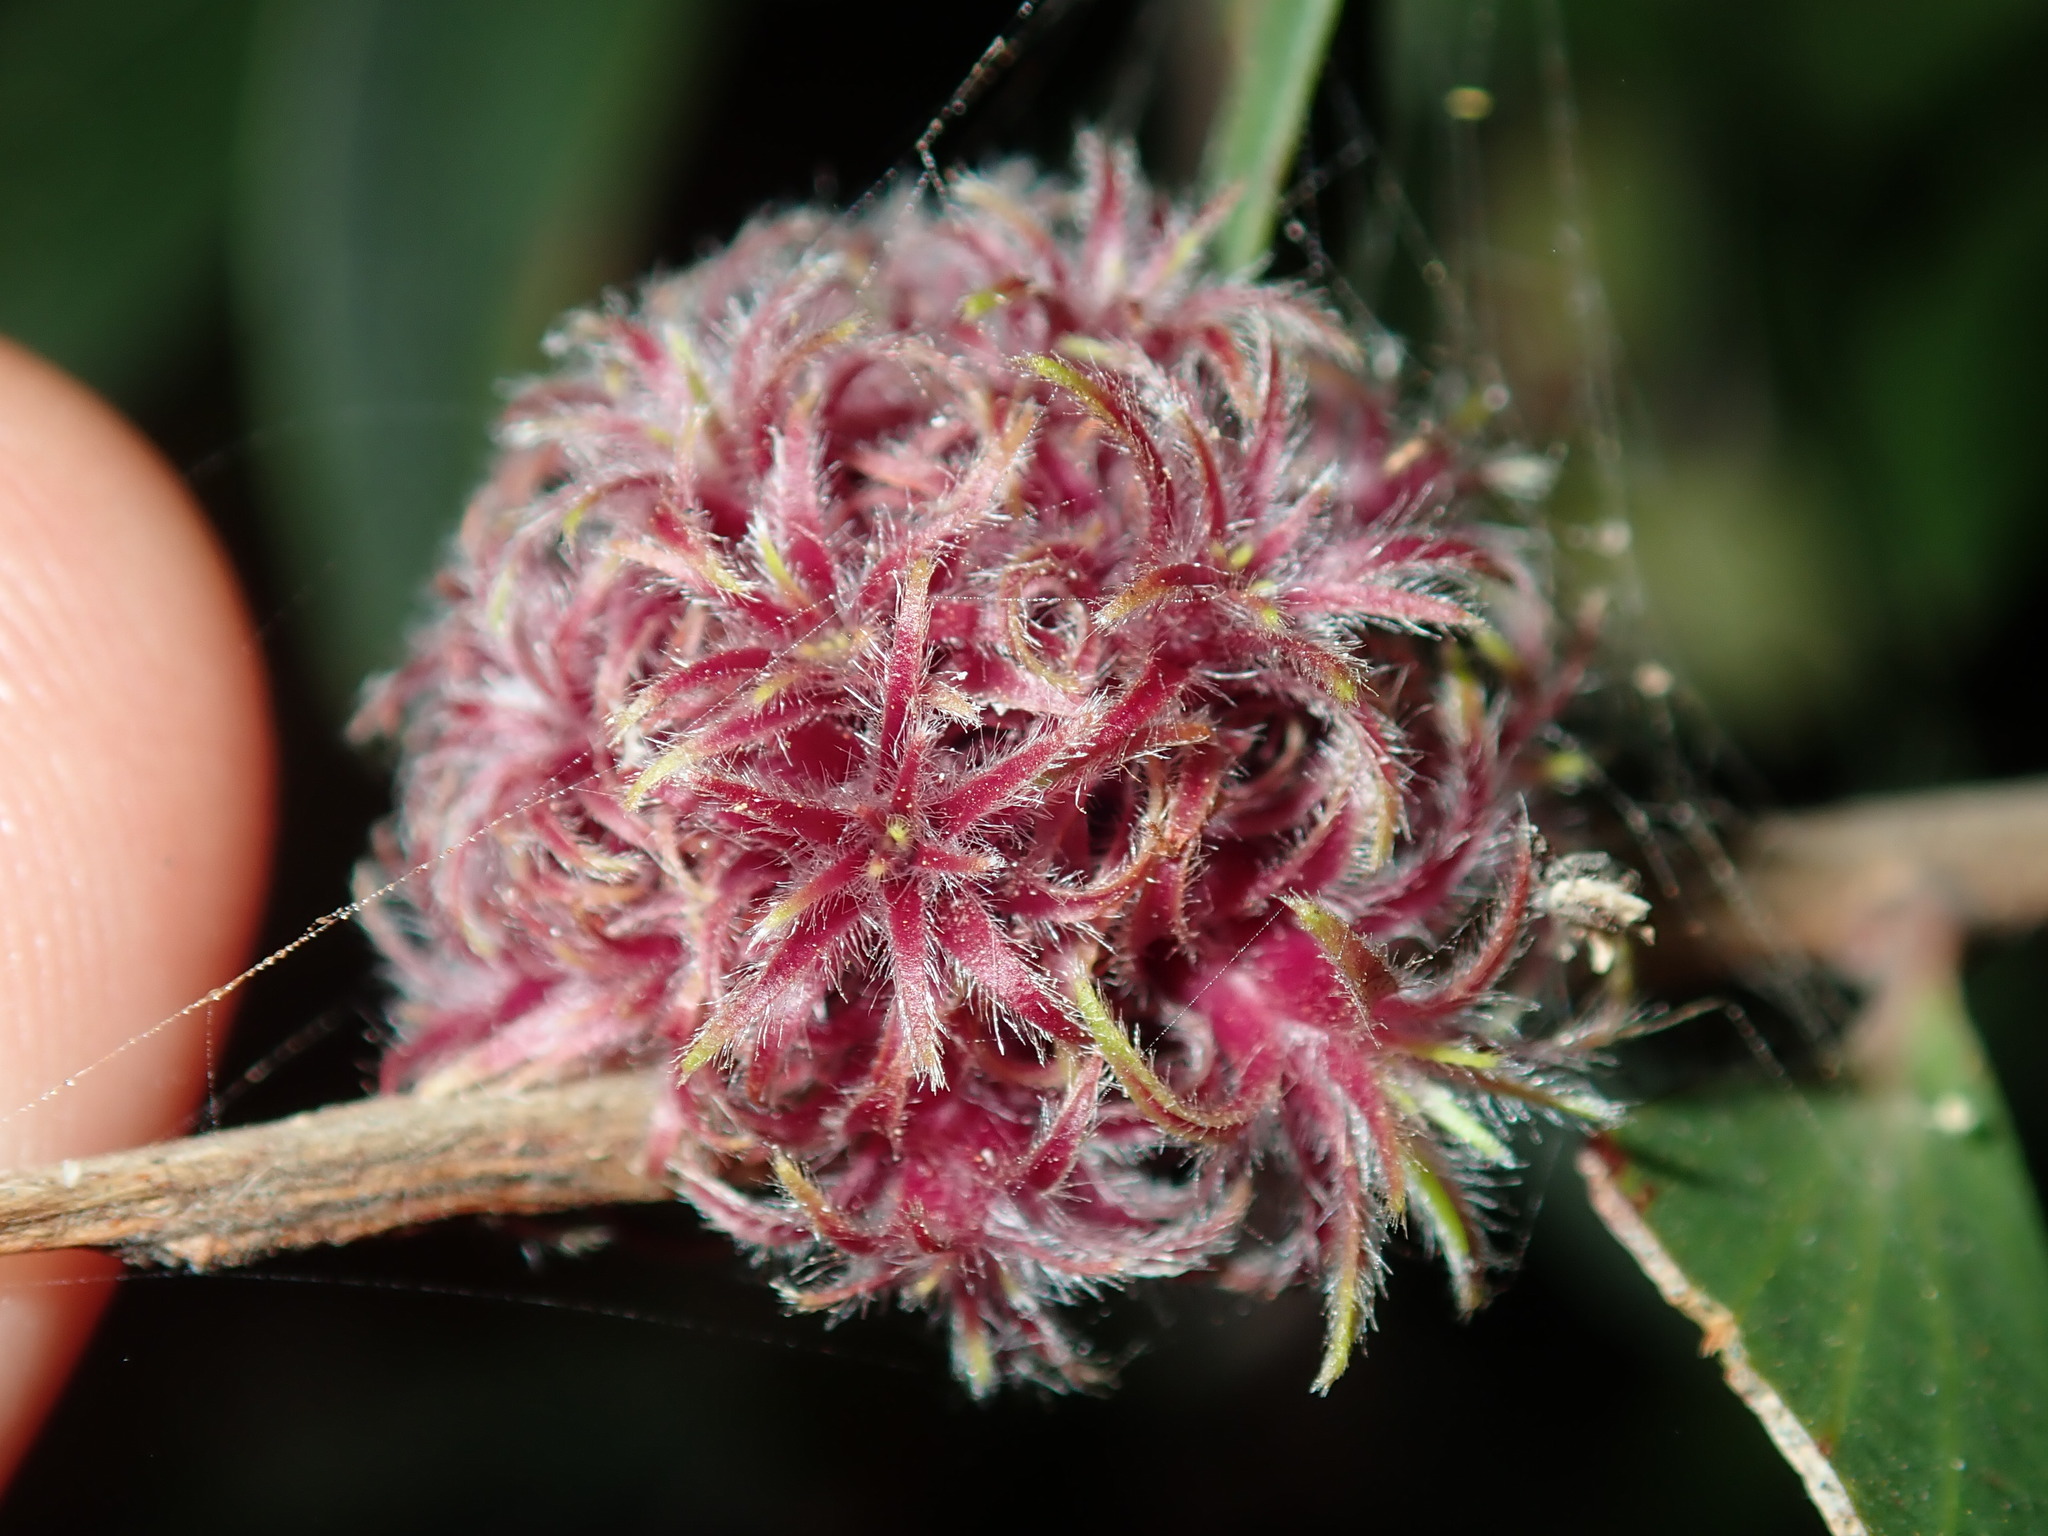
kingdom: Animalia
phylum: Arthropoda
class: Insecta
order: Hemiptera
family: Beesoniidae
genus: Beesonia
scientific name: Beesonia ferrugineus
